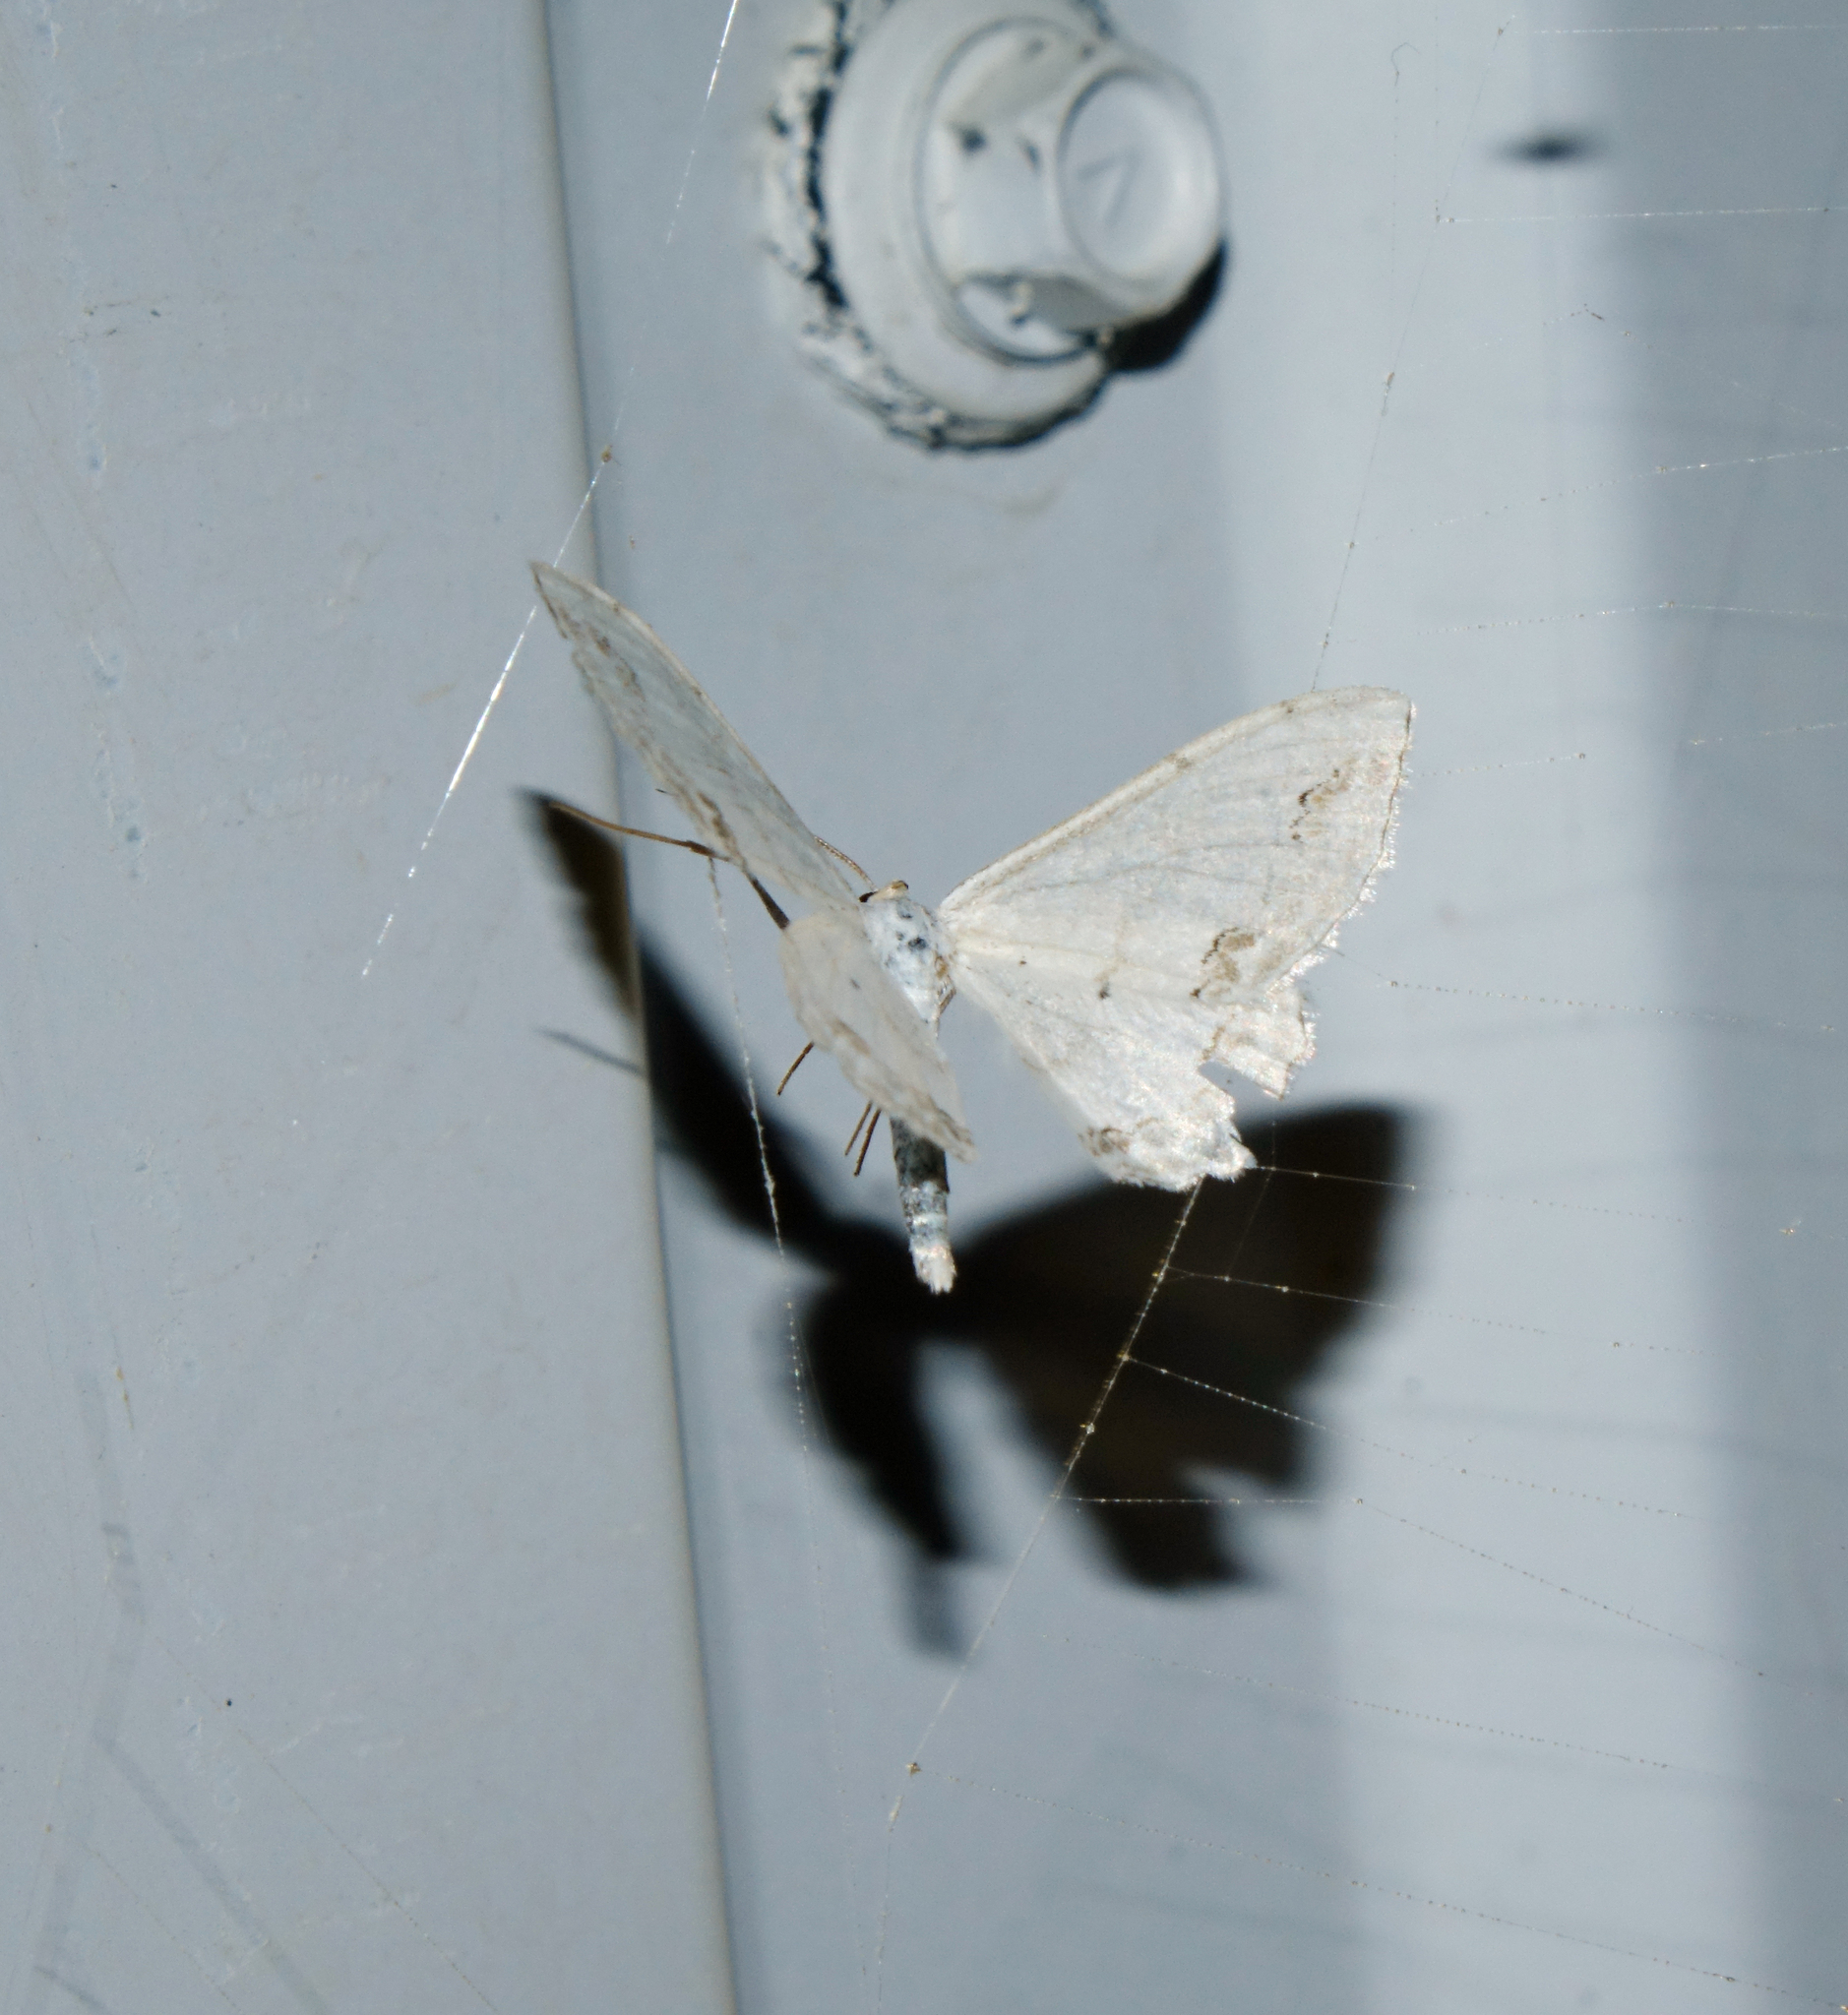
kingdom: Animalia
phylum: Arthropoda
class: Insecta
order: Lepidoptera
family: Geometridae
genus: Scopula
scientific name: Scopula ornata
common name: Lace border
